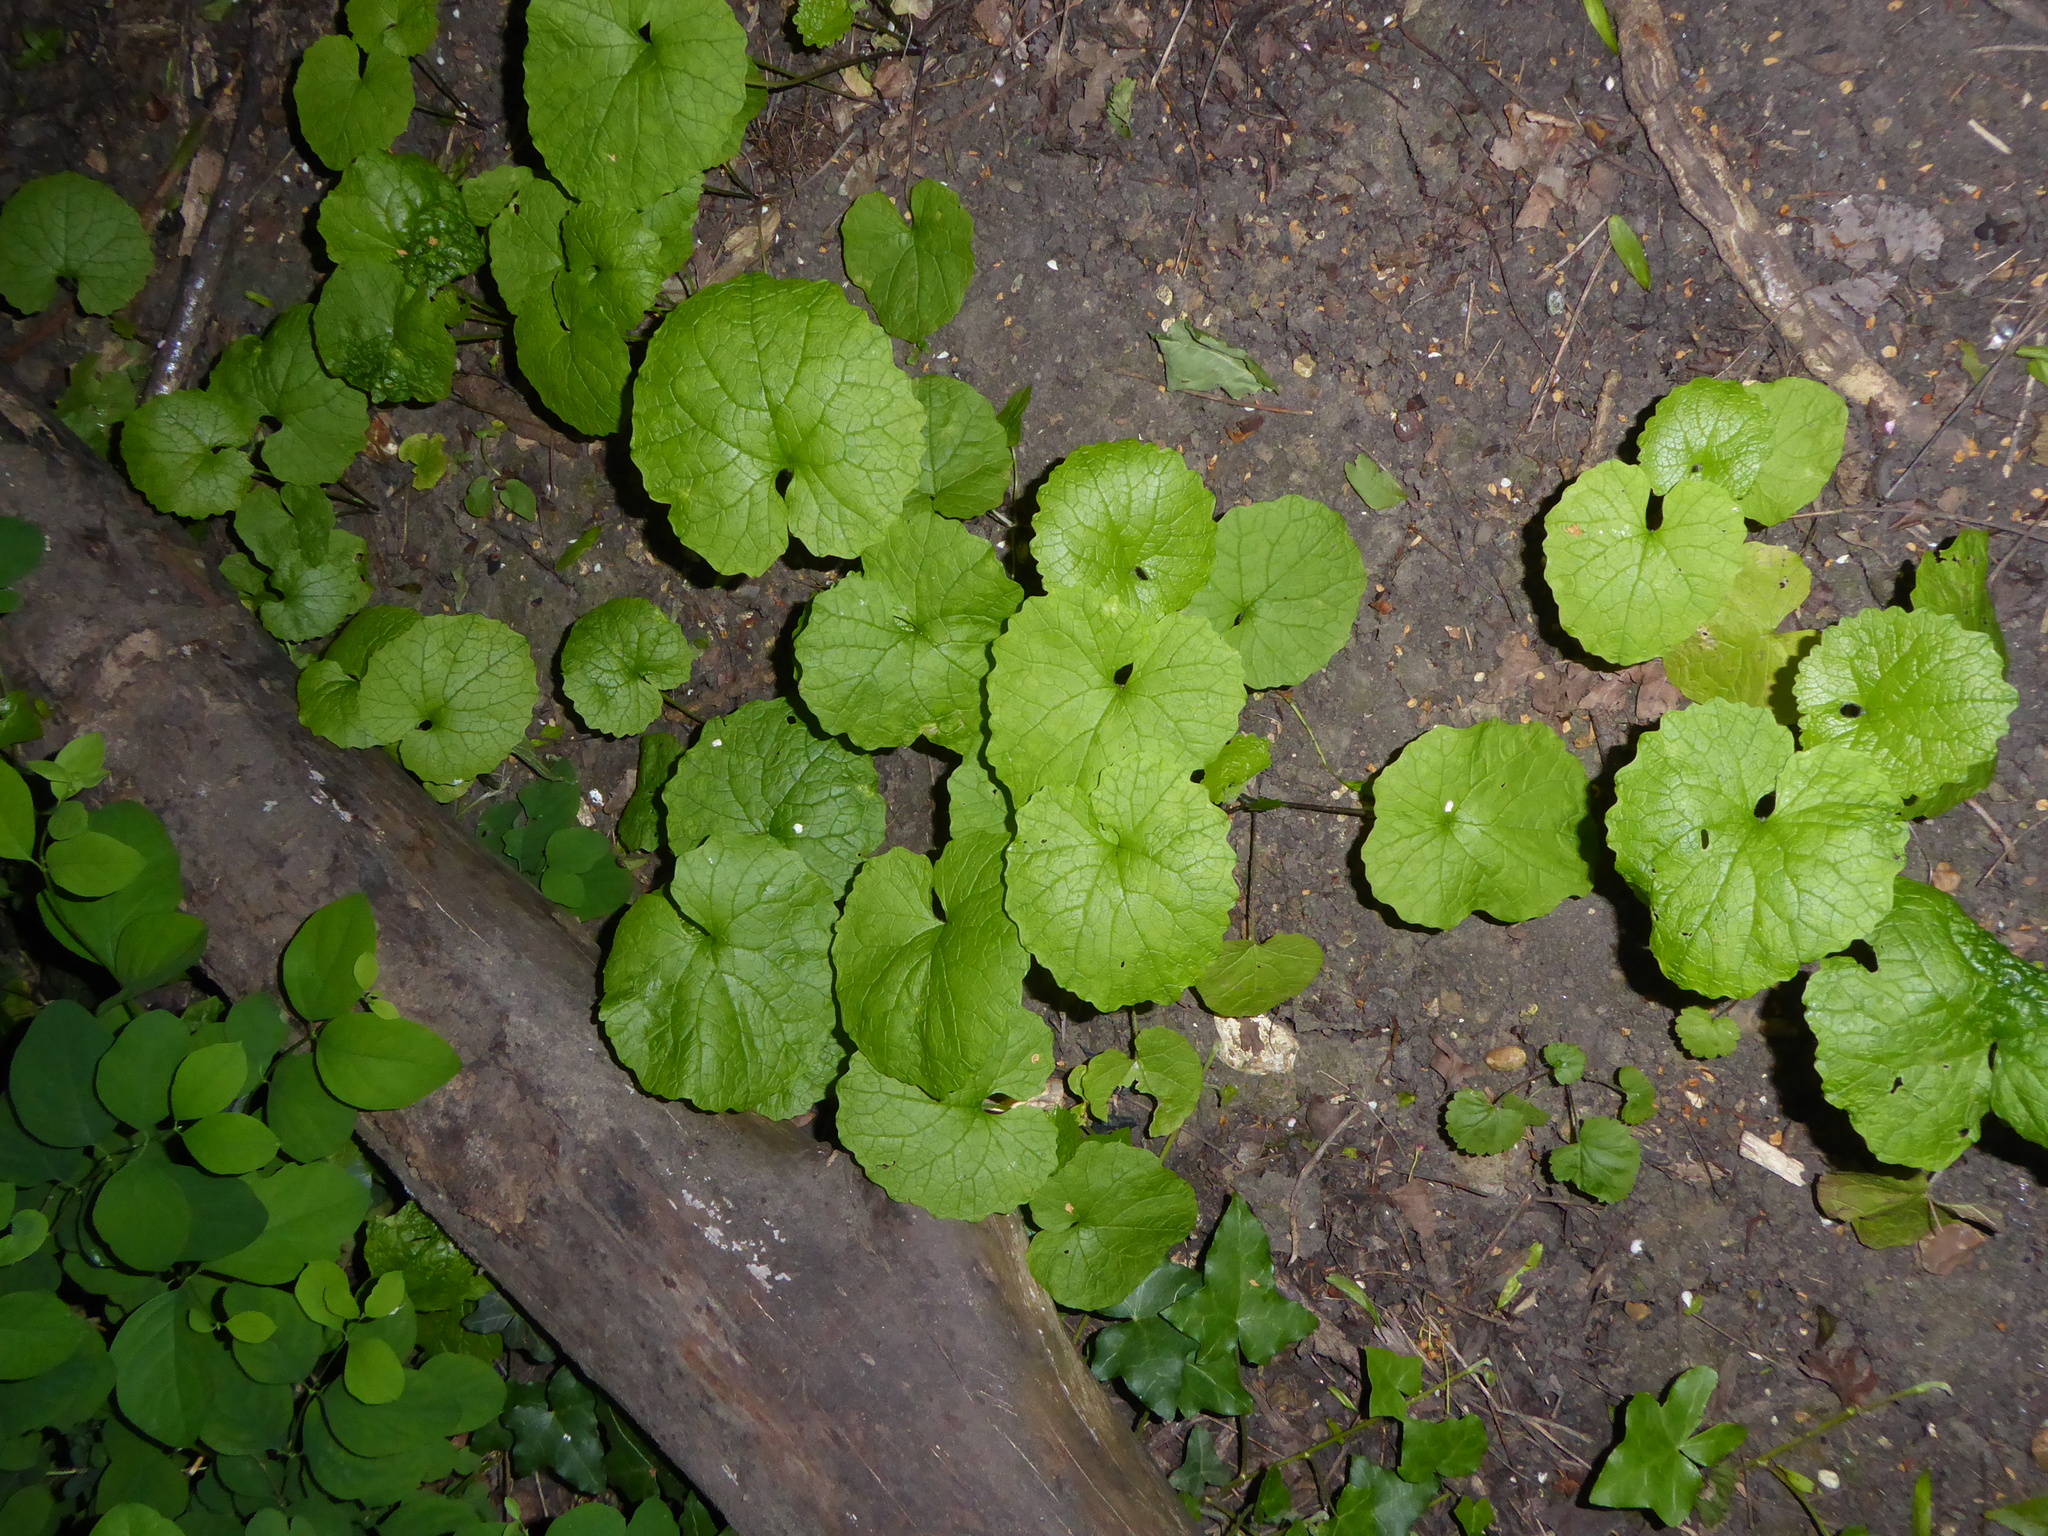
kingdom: Plantae
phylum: Tracheophyta
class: Magnoliopsida
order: Brassicales
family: Brassicaceae
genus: Alliaria
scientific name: Alliaria petiolata
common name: Garlic mustard
